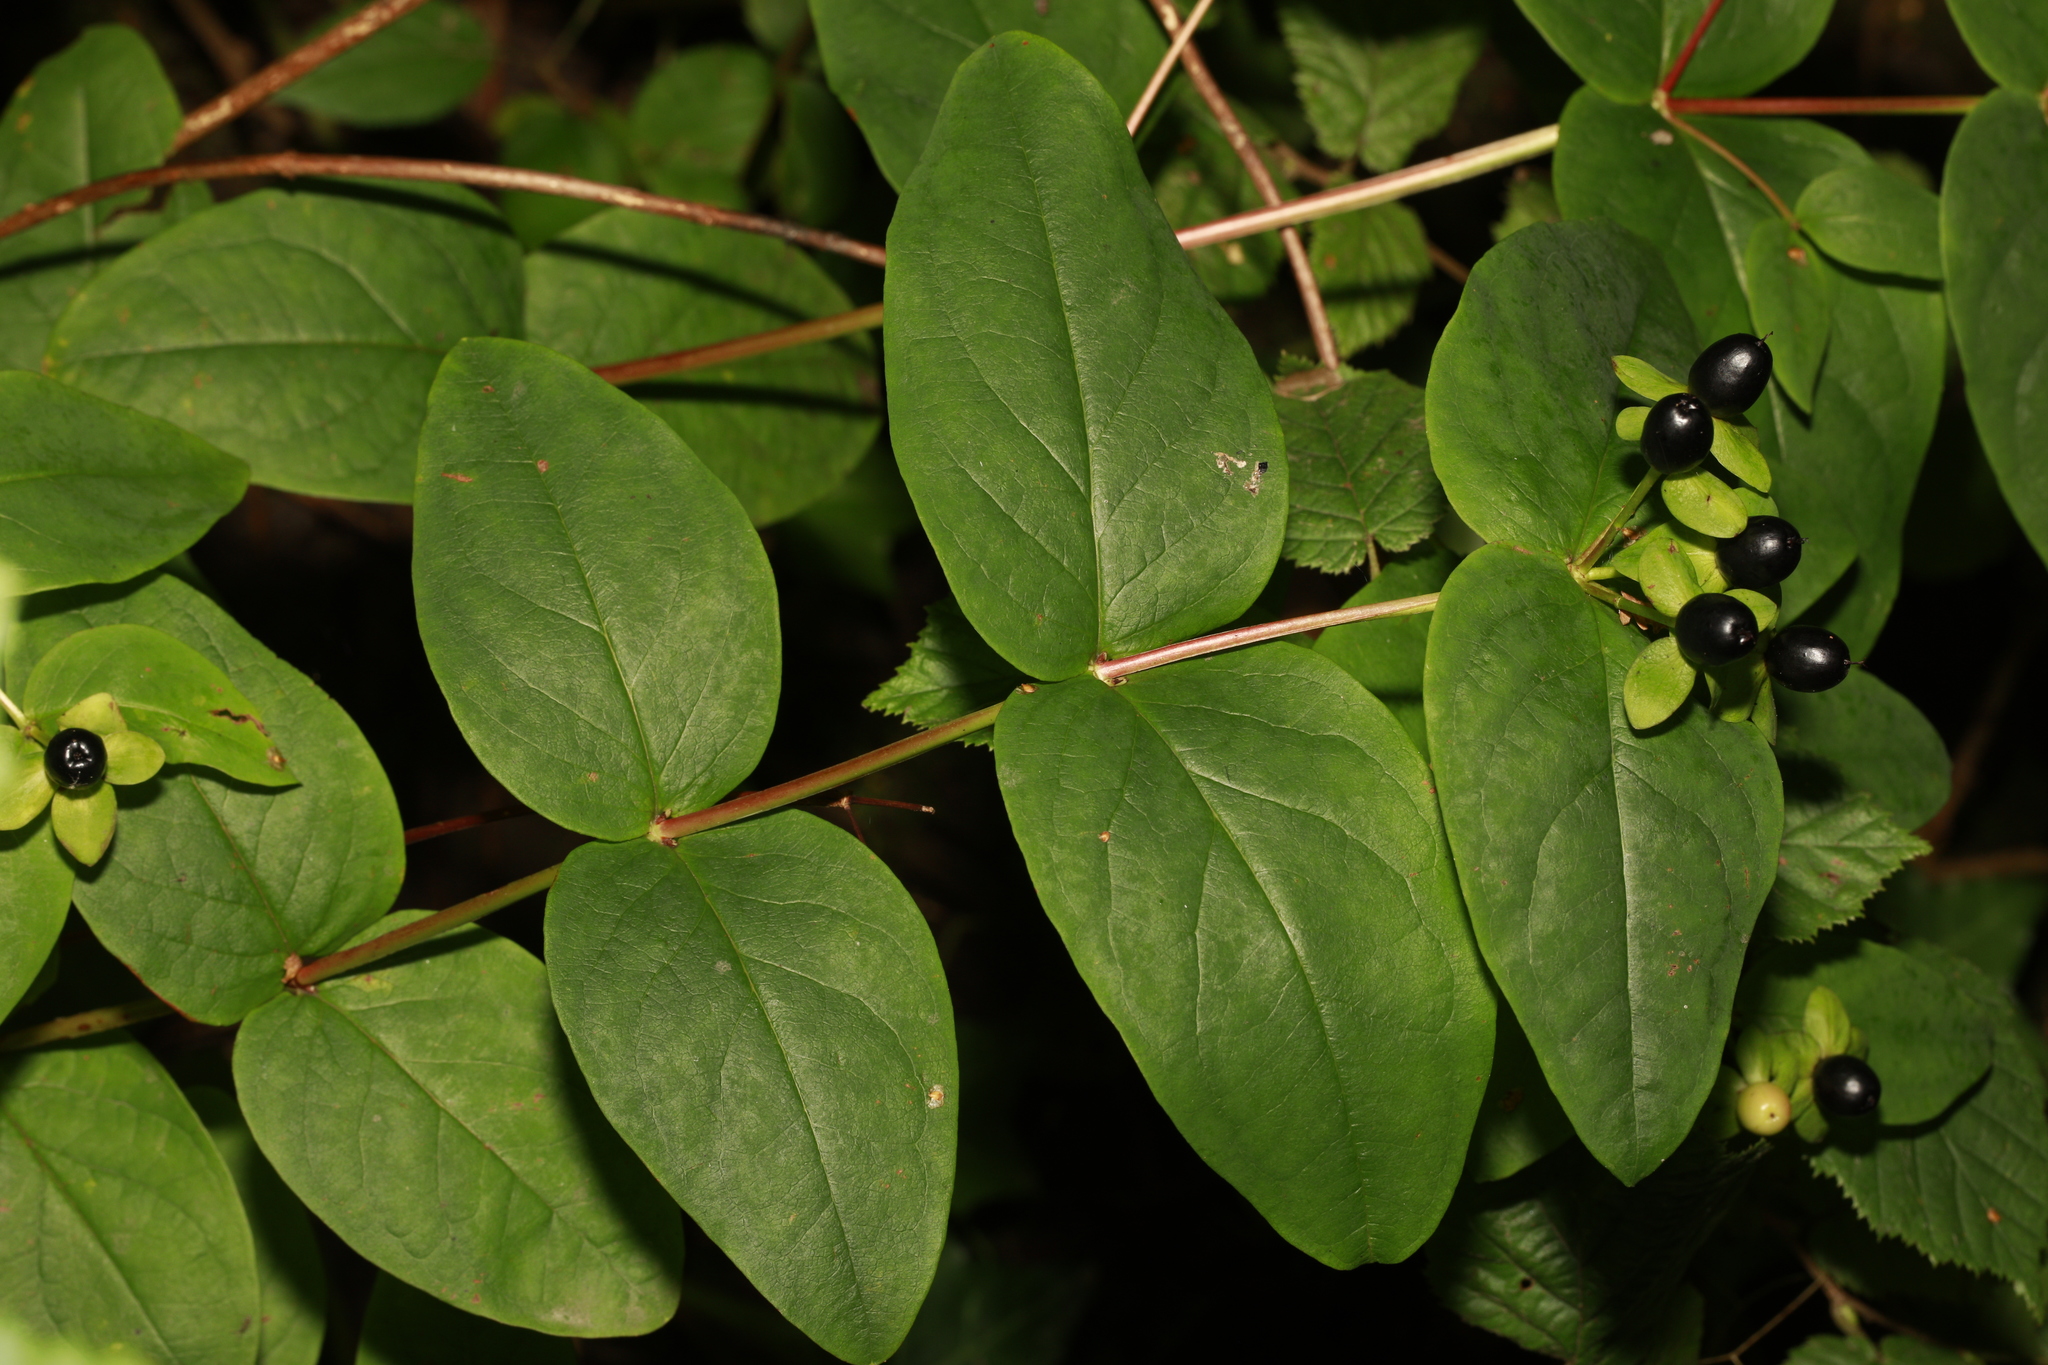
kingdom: Plantae
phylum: Tracheophyta
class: Magnoliopsida
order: Malpighiales
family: Hypericaceae
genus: Hypericum
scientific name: Hypericum androsaemum
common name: Sweet-amber
